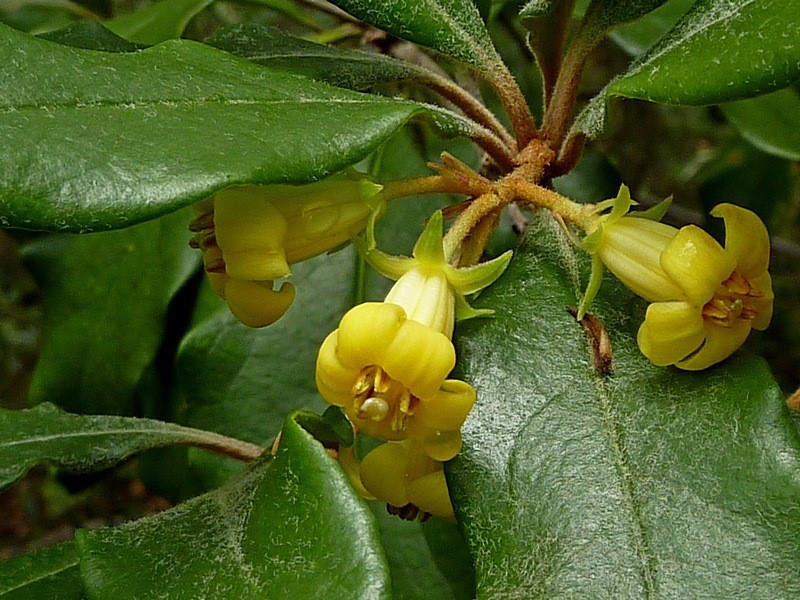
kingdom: Plantae
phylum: Tracheophyta
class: Magnoliopsida
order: Apiales
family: Pittosporaceae
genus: Pittosporum
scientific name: Pittosporum revolutum
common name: Brisbane-laurel
